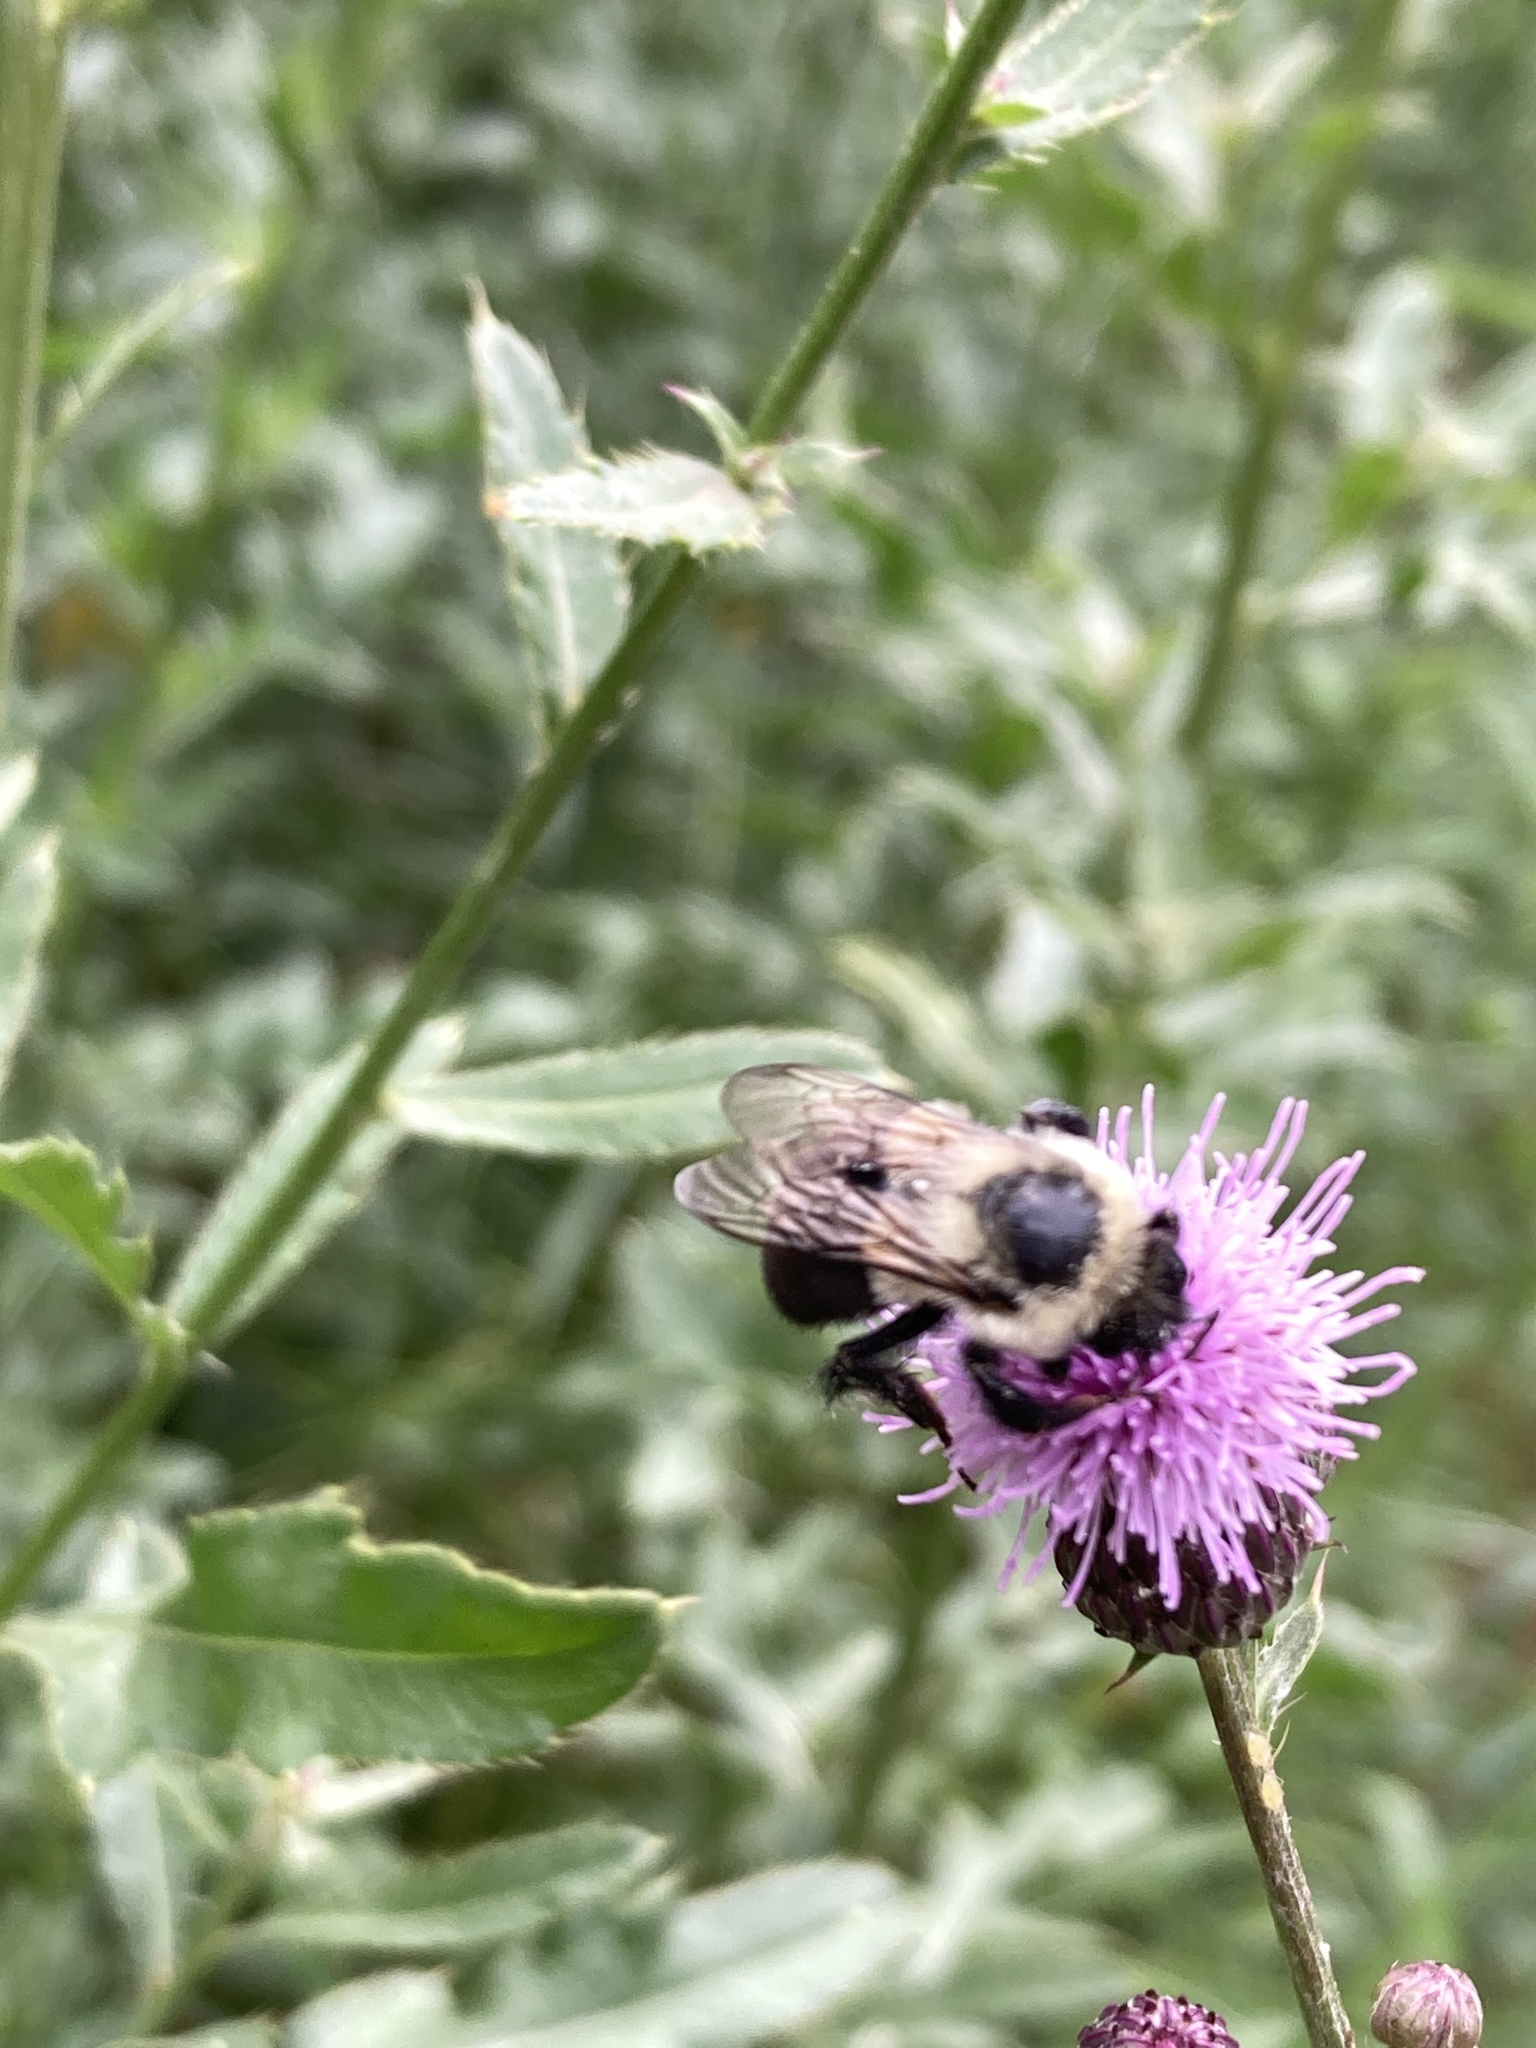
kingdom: Animalia
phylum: Arthropoda
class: Insecta
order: Hymenoptera
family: Apidae
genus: Bombus
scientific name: Bombus impatiens
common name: Common eastern bumble bee
